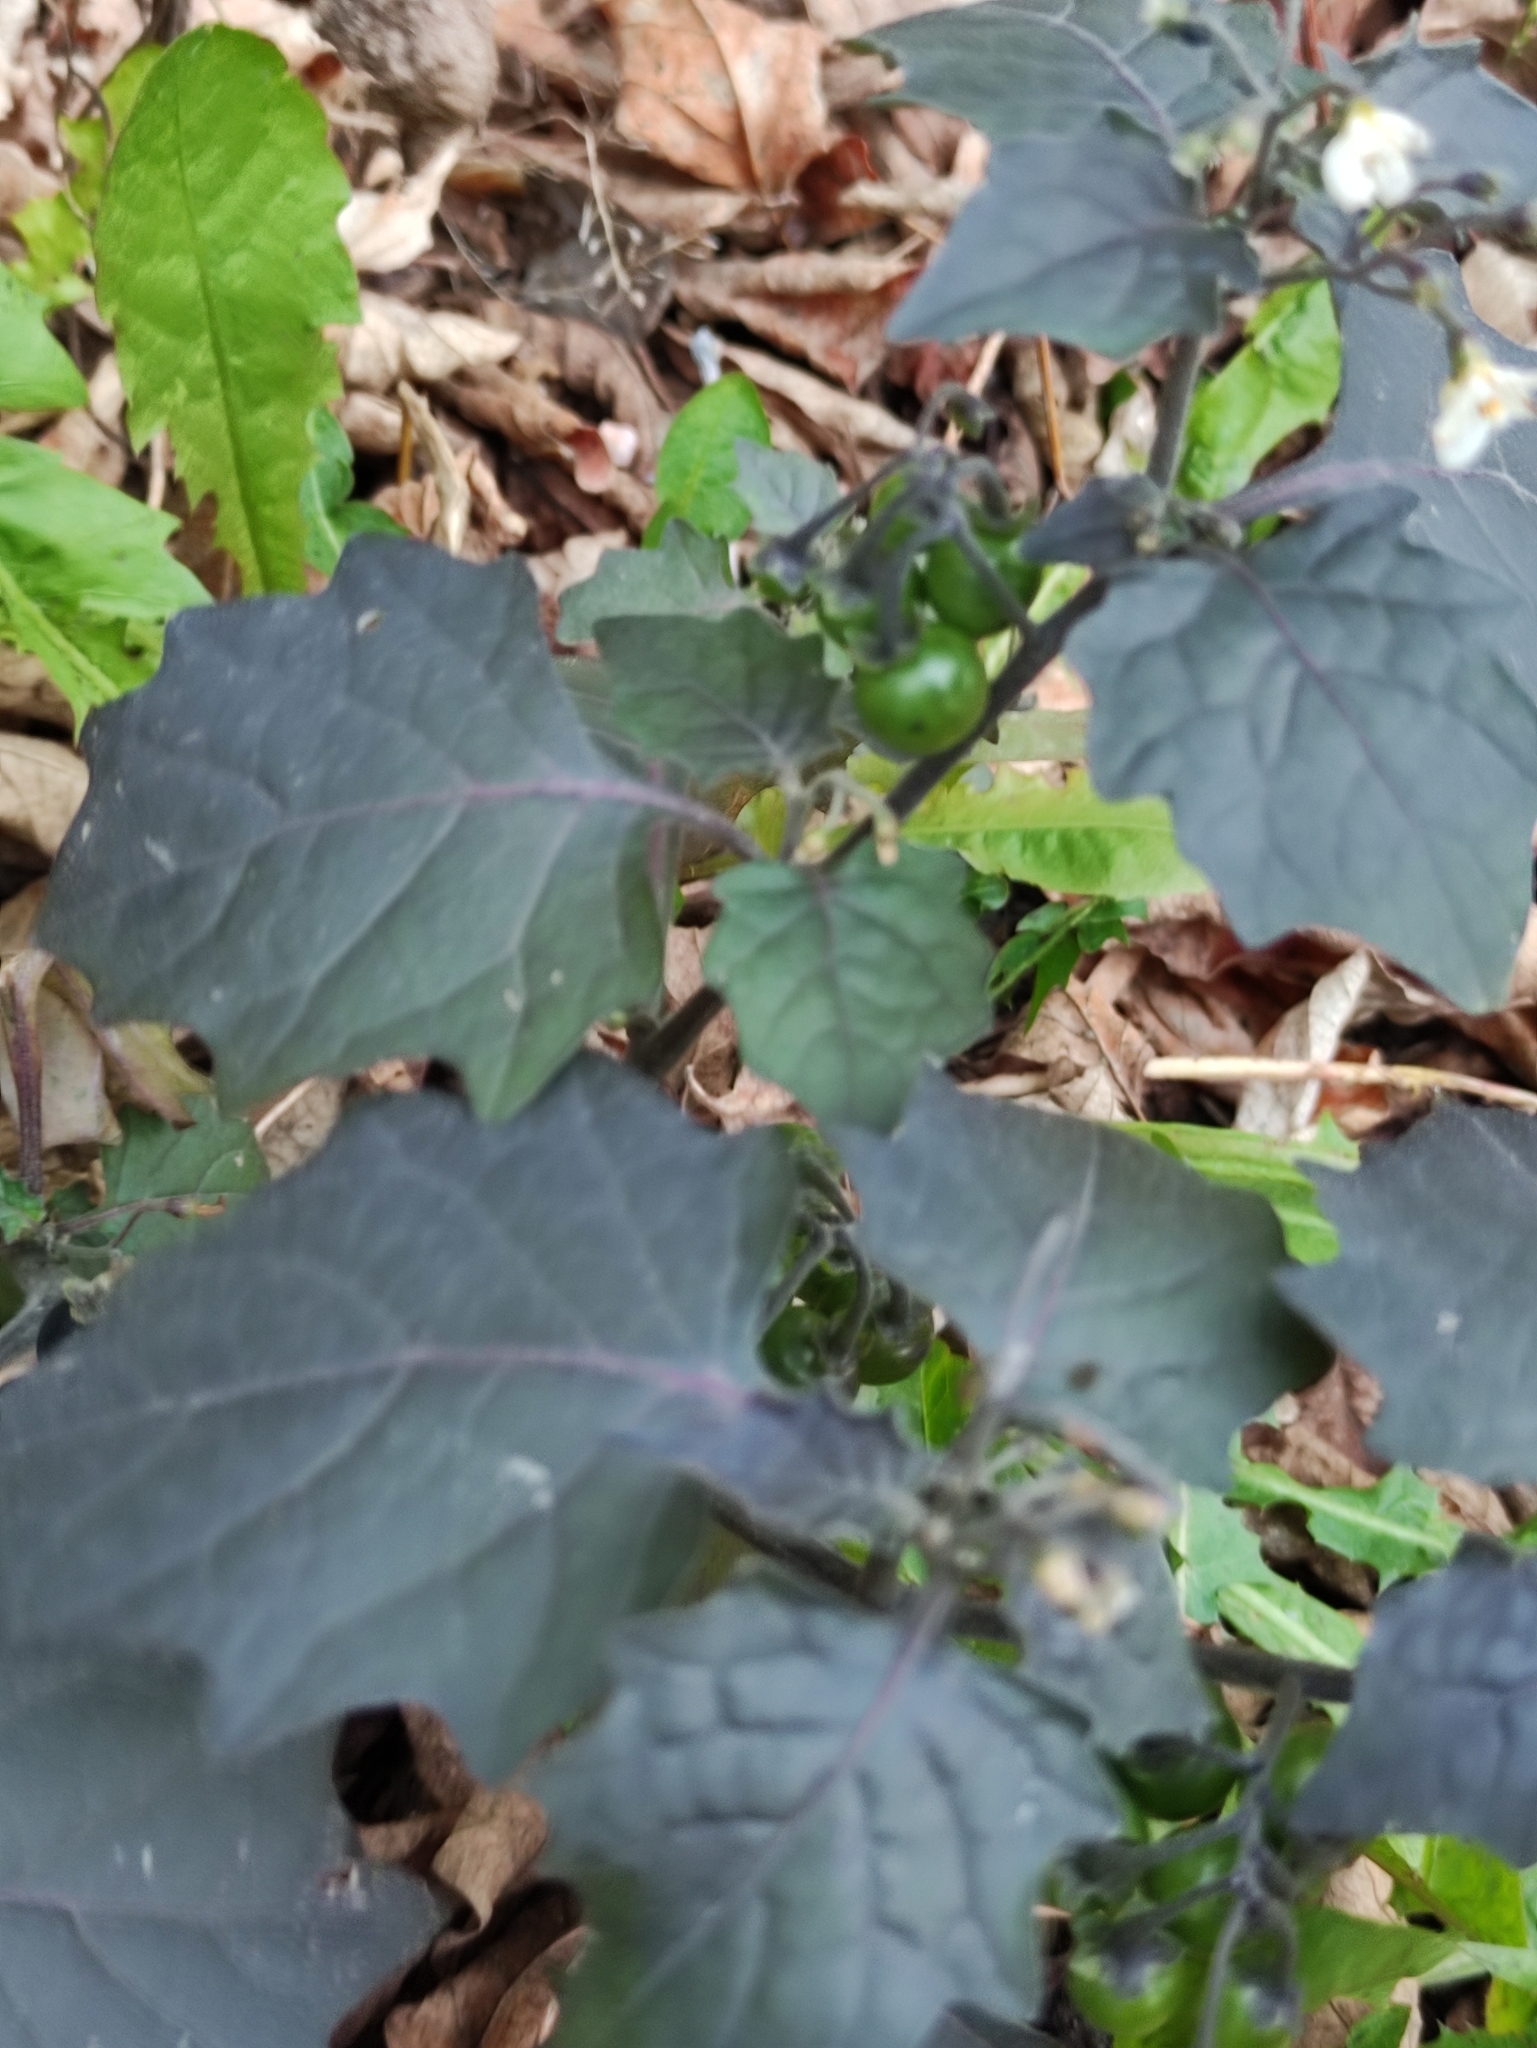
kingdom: Plantae
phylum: Tracheophyta
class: Magnoliopsida
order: Solanales
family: Solanaceae
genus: Solanum
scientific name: Solanum nigrum
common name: Black nightshade
